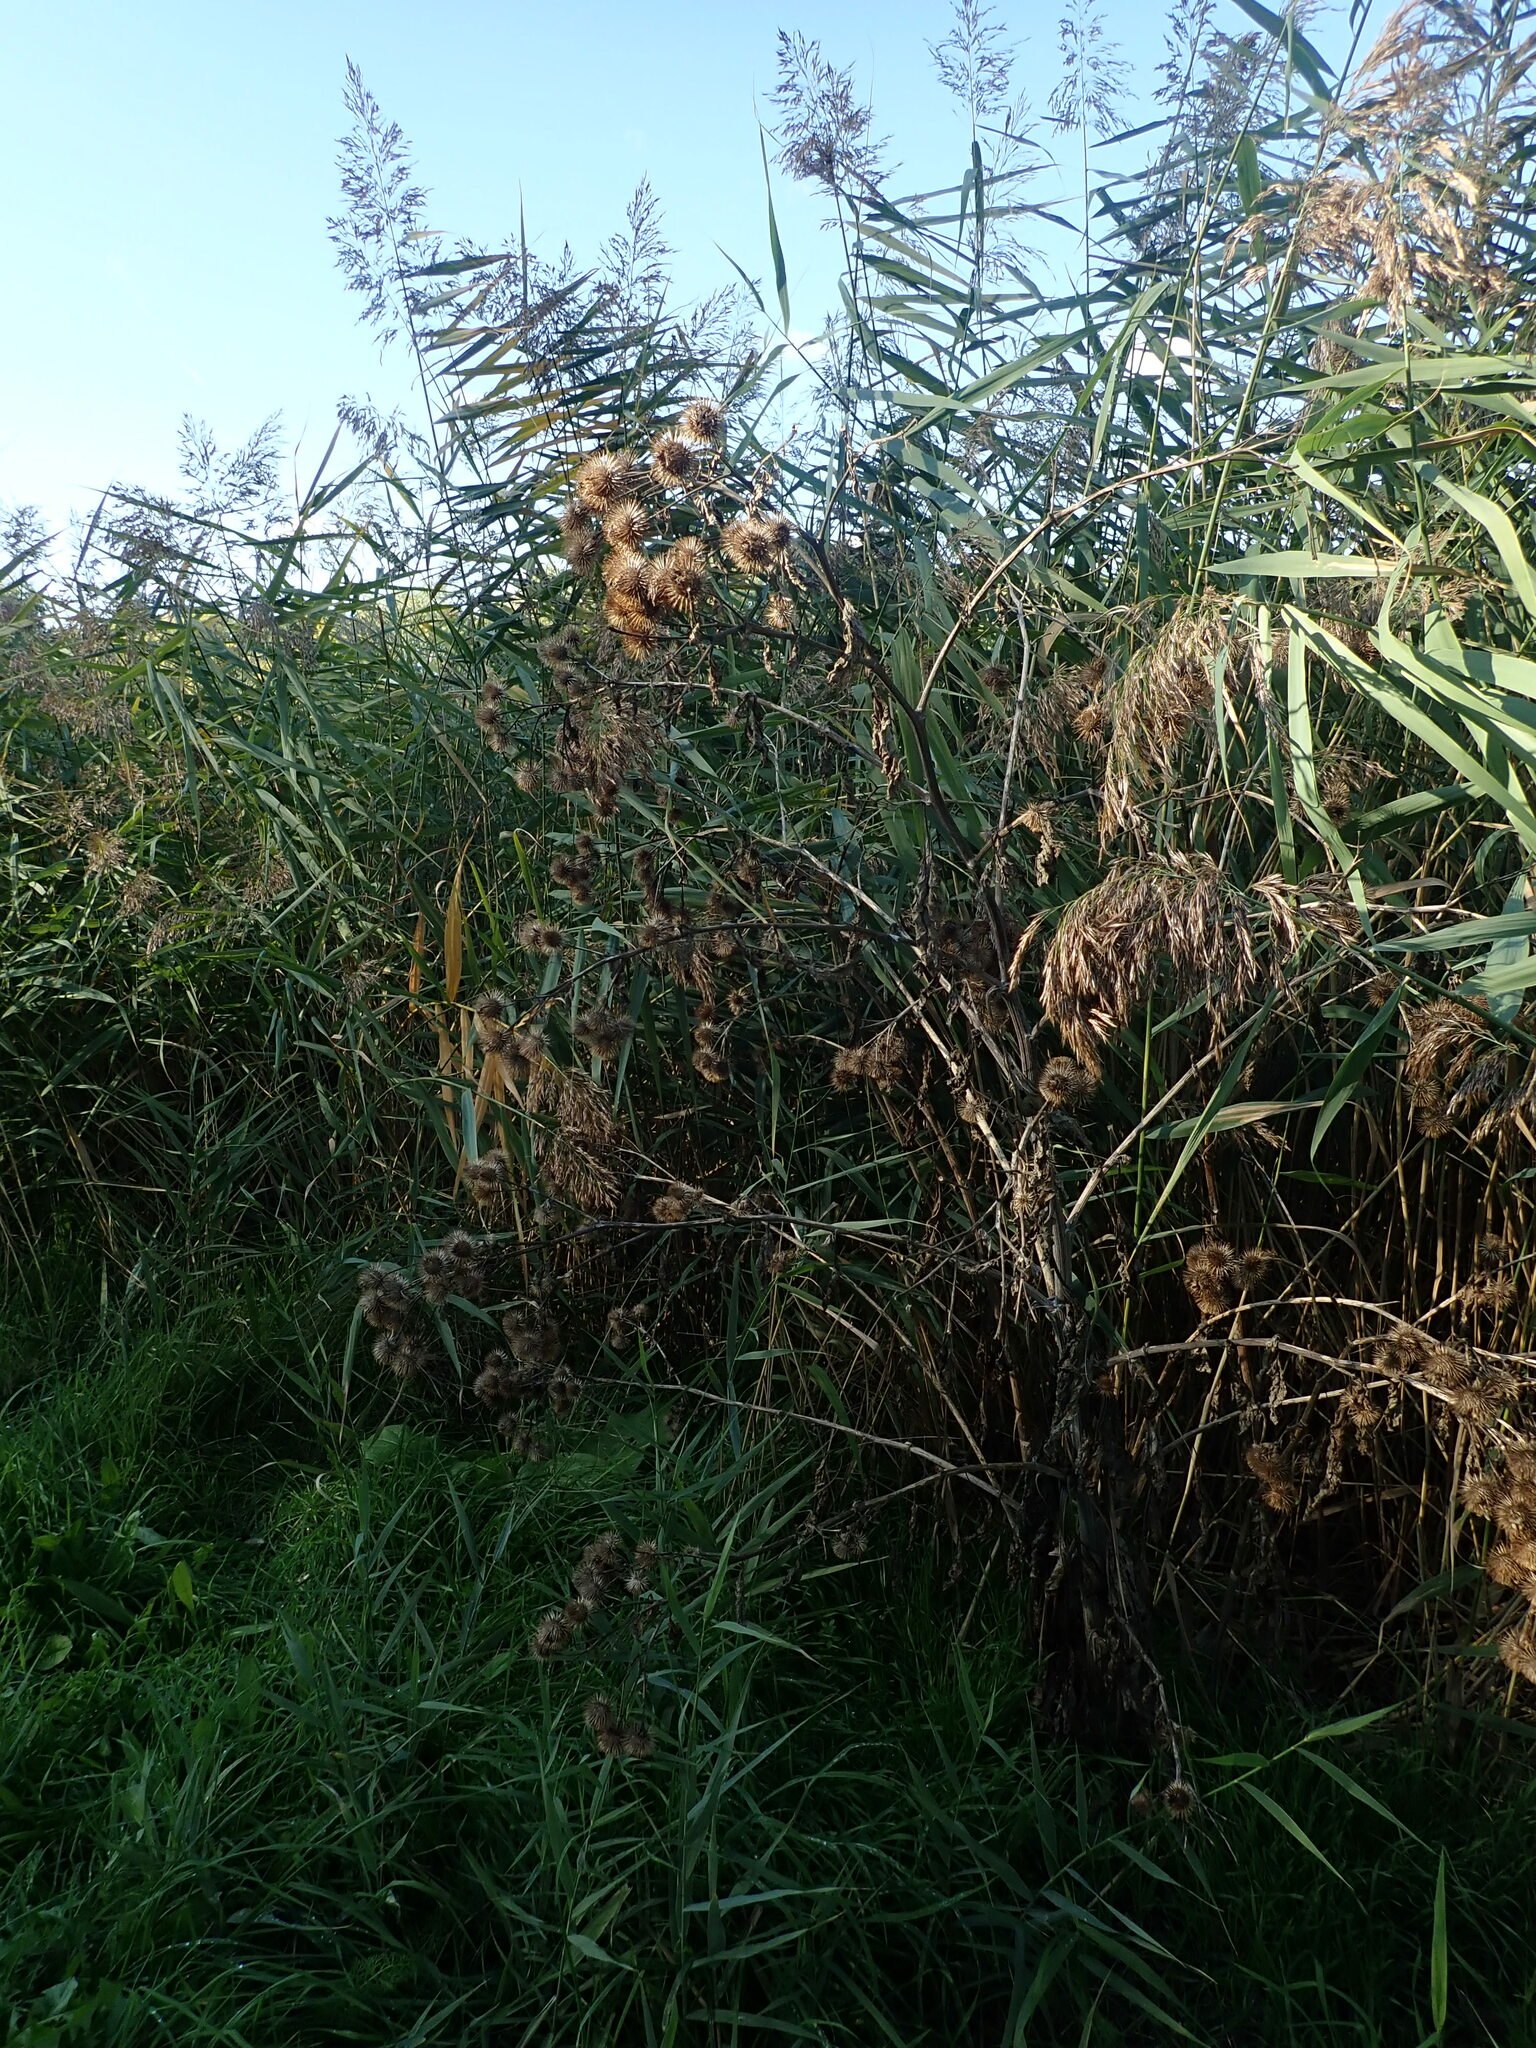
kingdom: Plantae
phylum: Tracheophyta
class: Magnoliopsida
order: Asterales
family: Asteraceae
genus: Arctium
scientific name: Arctium lappa
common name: Greater burdock
